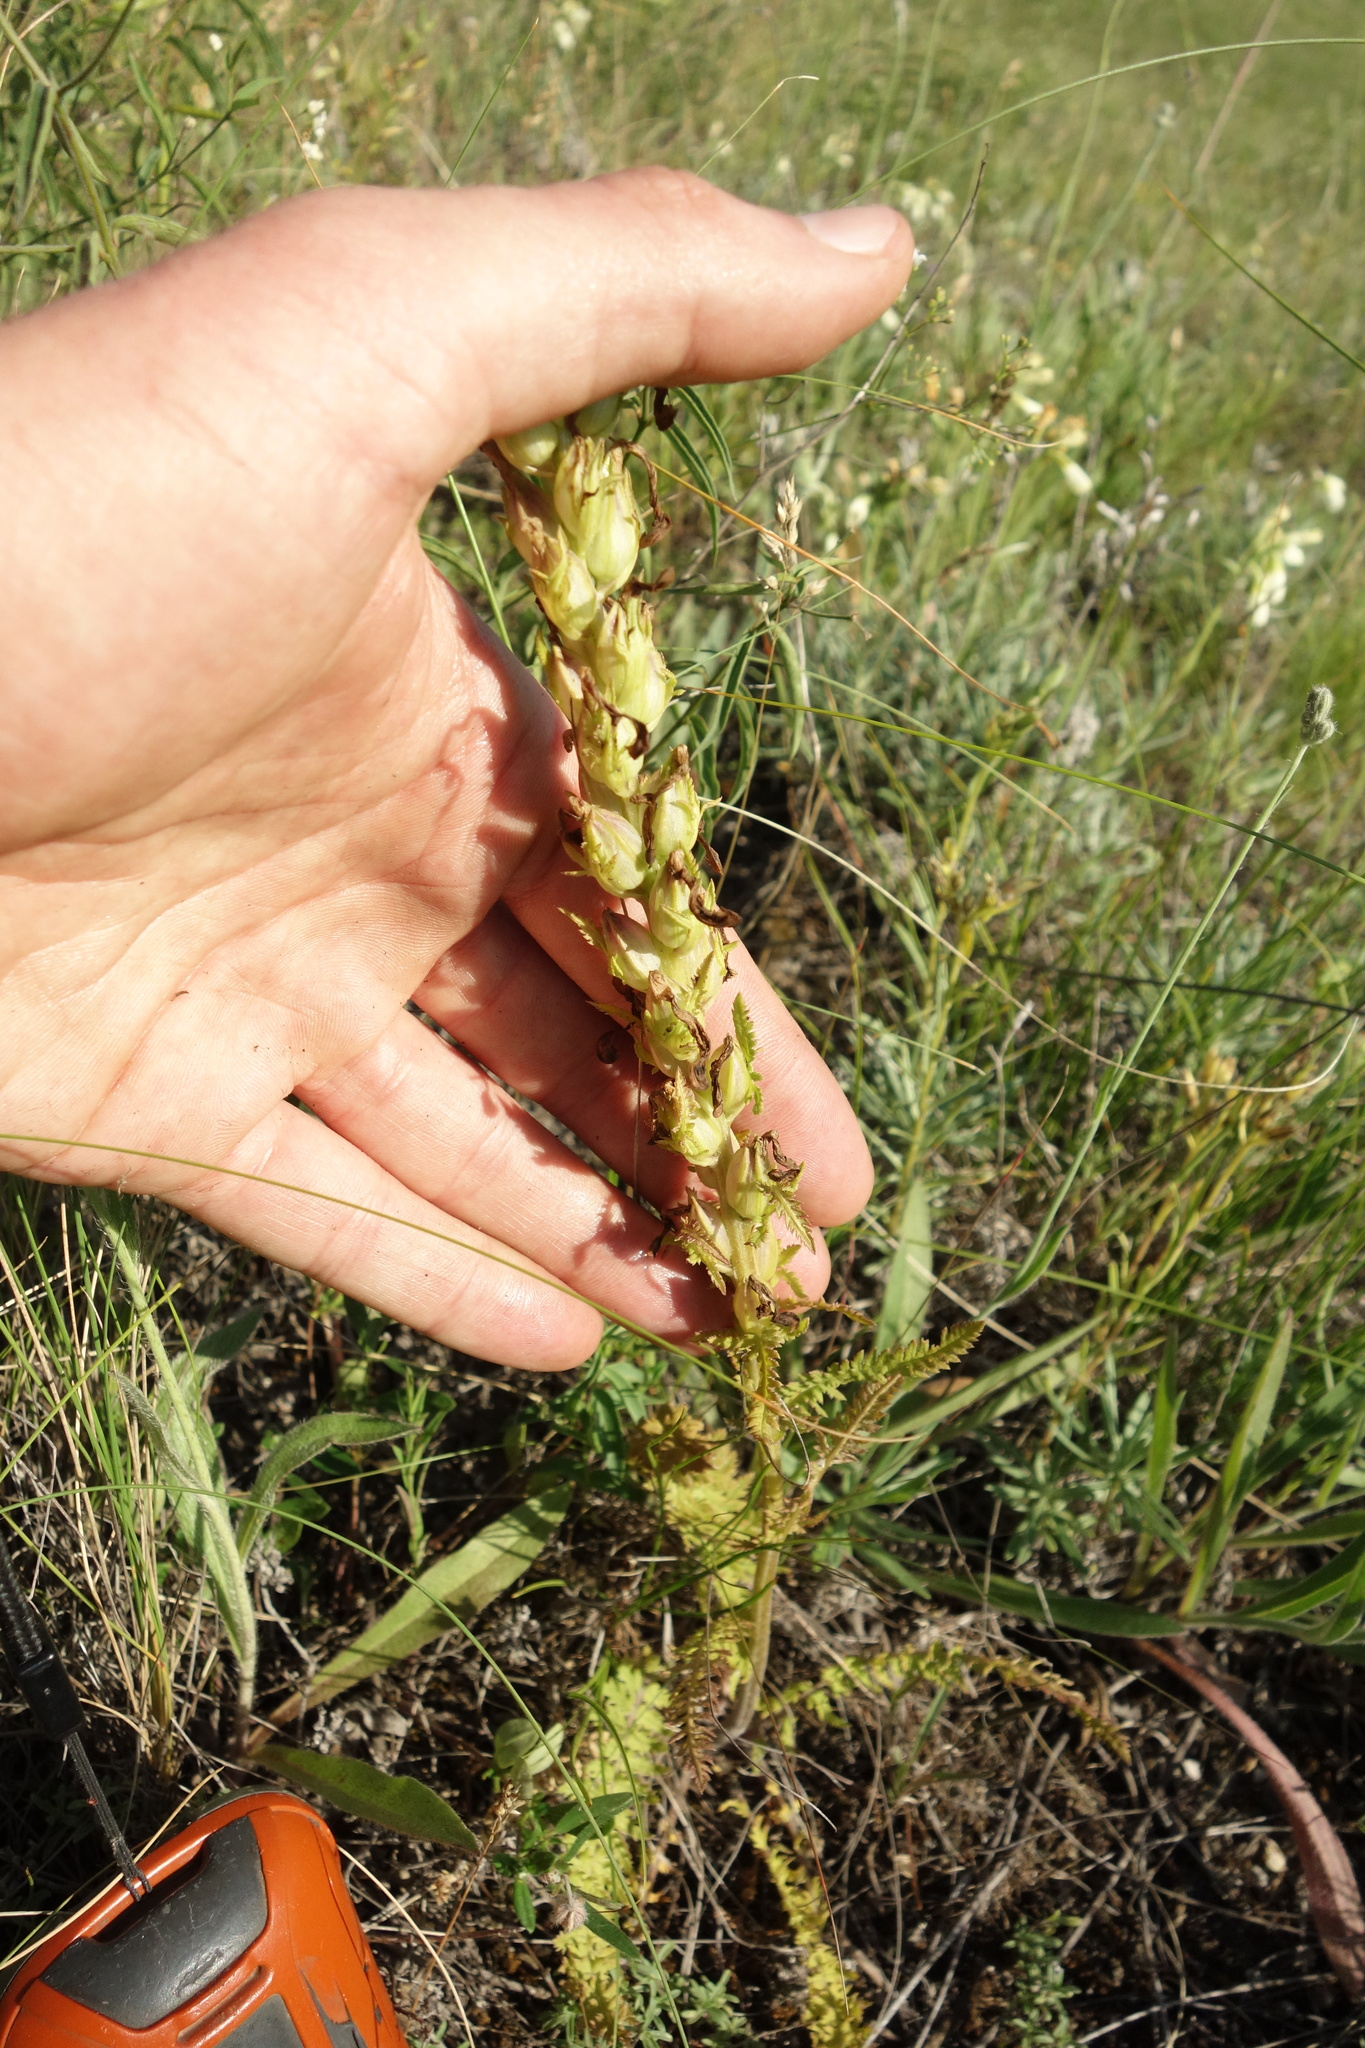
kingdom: Plantae
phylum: Tracheophyta
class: Magnoliopsida
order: Lamiales
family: Orobanchaceae
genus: Pedicularis
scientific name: Pedicularis kaufmannii
